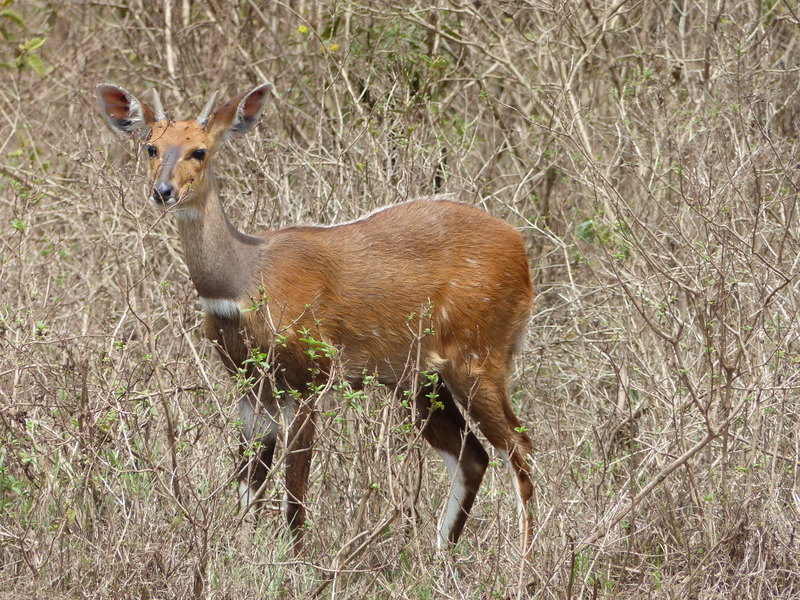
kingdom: Animalia
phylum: Chordata
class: Mammalia
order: Artiodactyla
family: Bovidae
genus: Tragelaphus
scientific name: Tragelaphus scriptus
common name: Bushbuck
